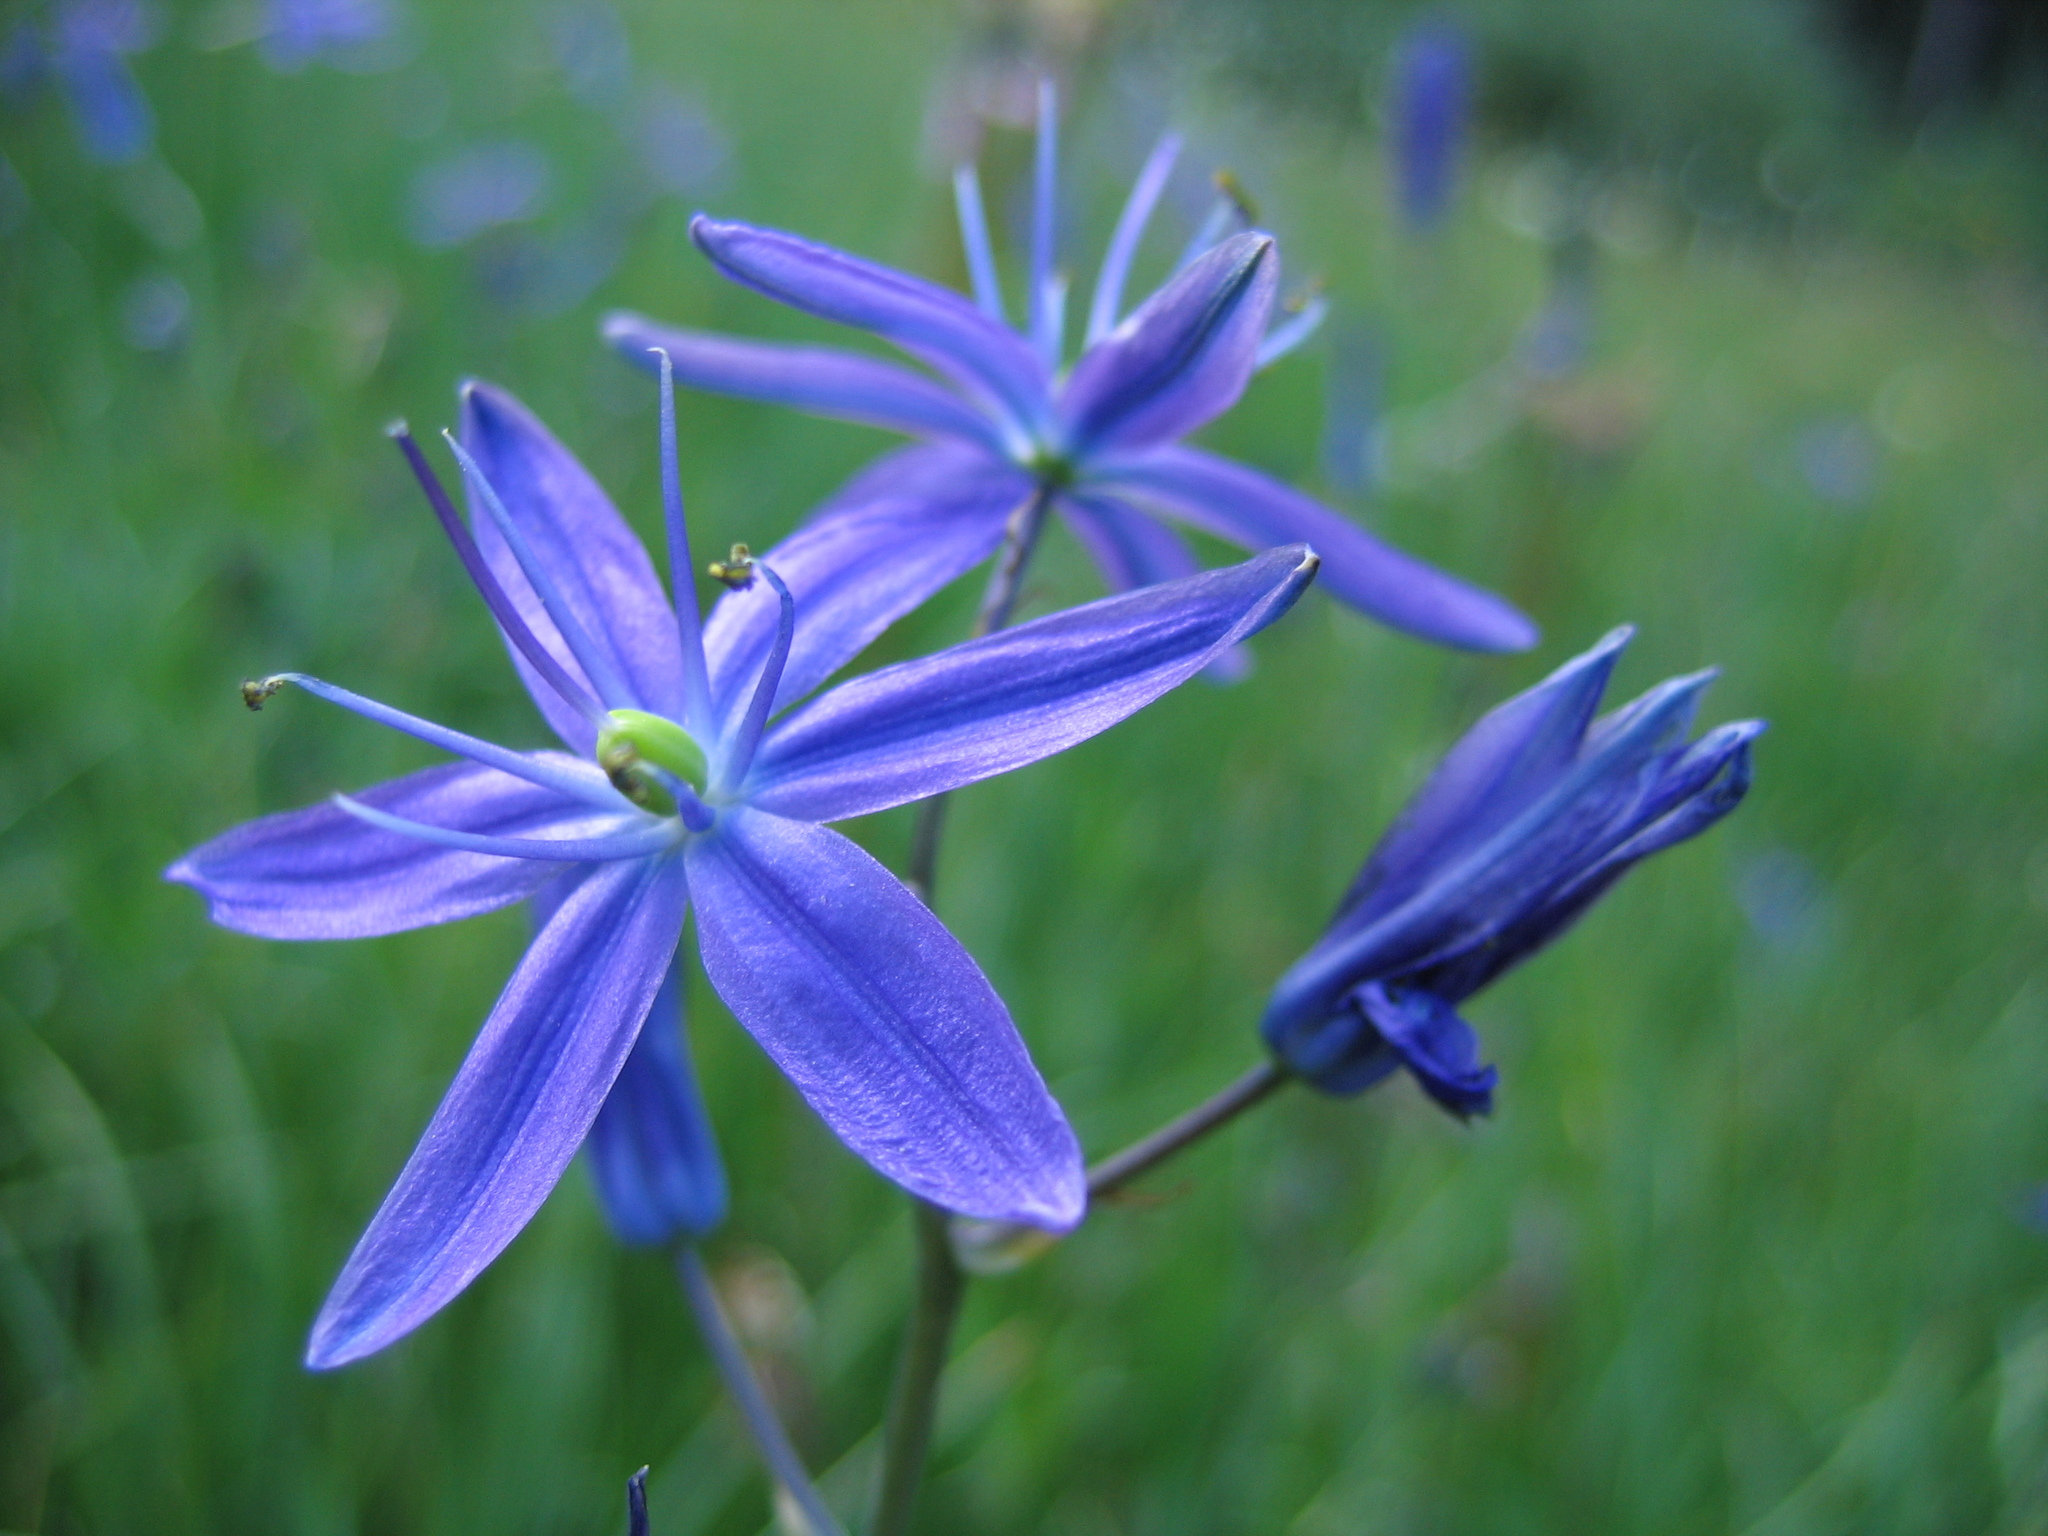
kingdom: Plantae
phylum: Tracheophyta
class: Liliopsida
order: Asparagales
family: Asparagaceae
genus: Camassia
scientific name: Camassia quamash
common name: Common camas
